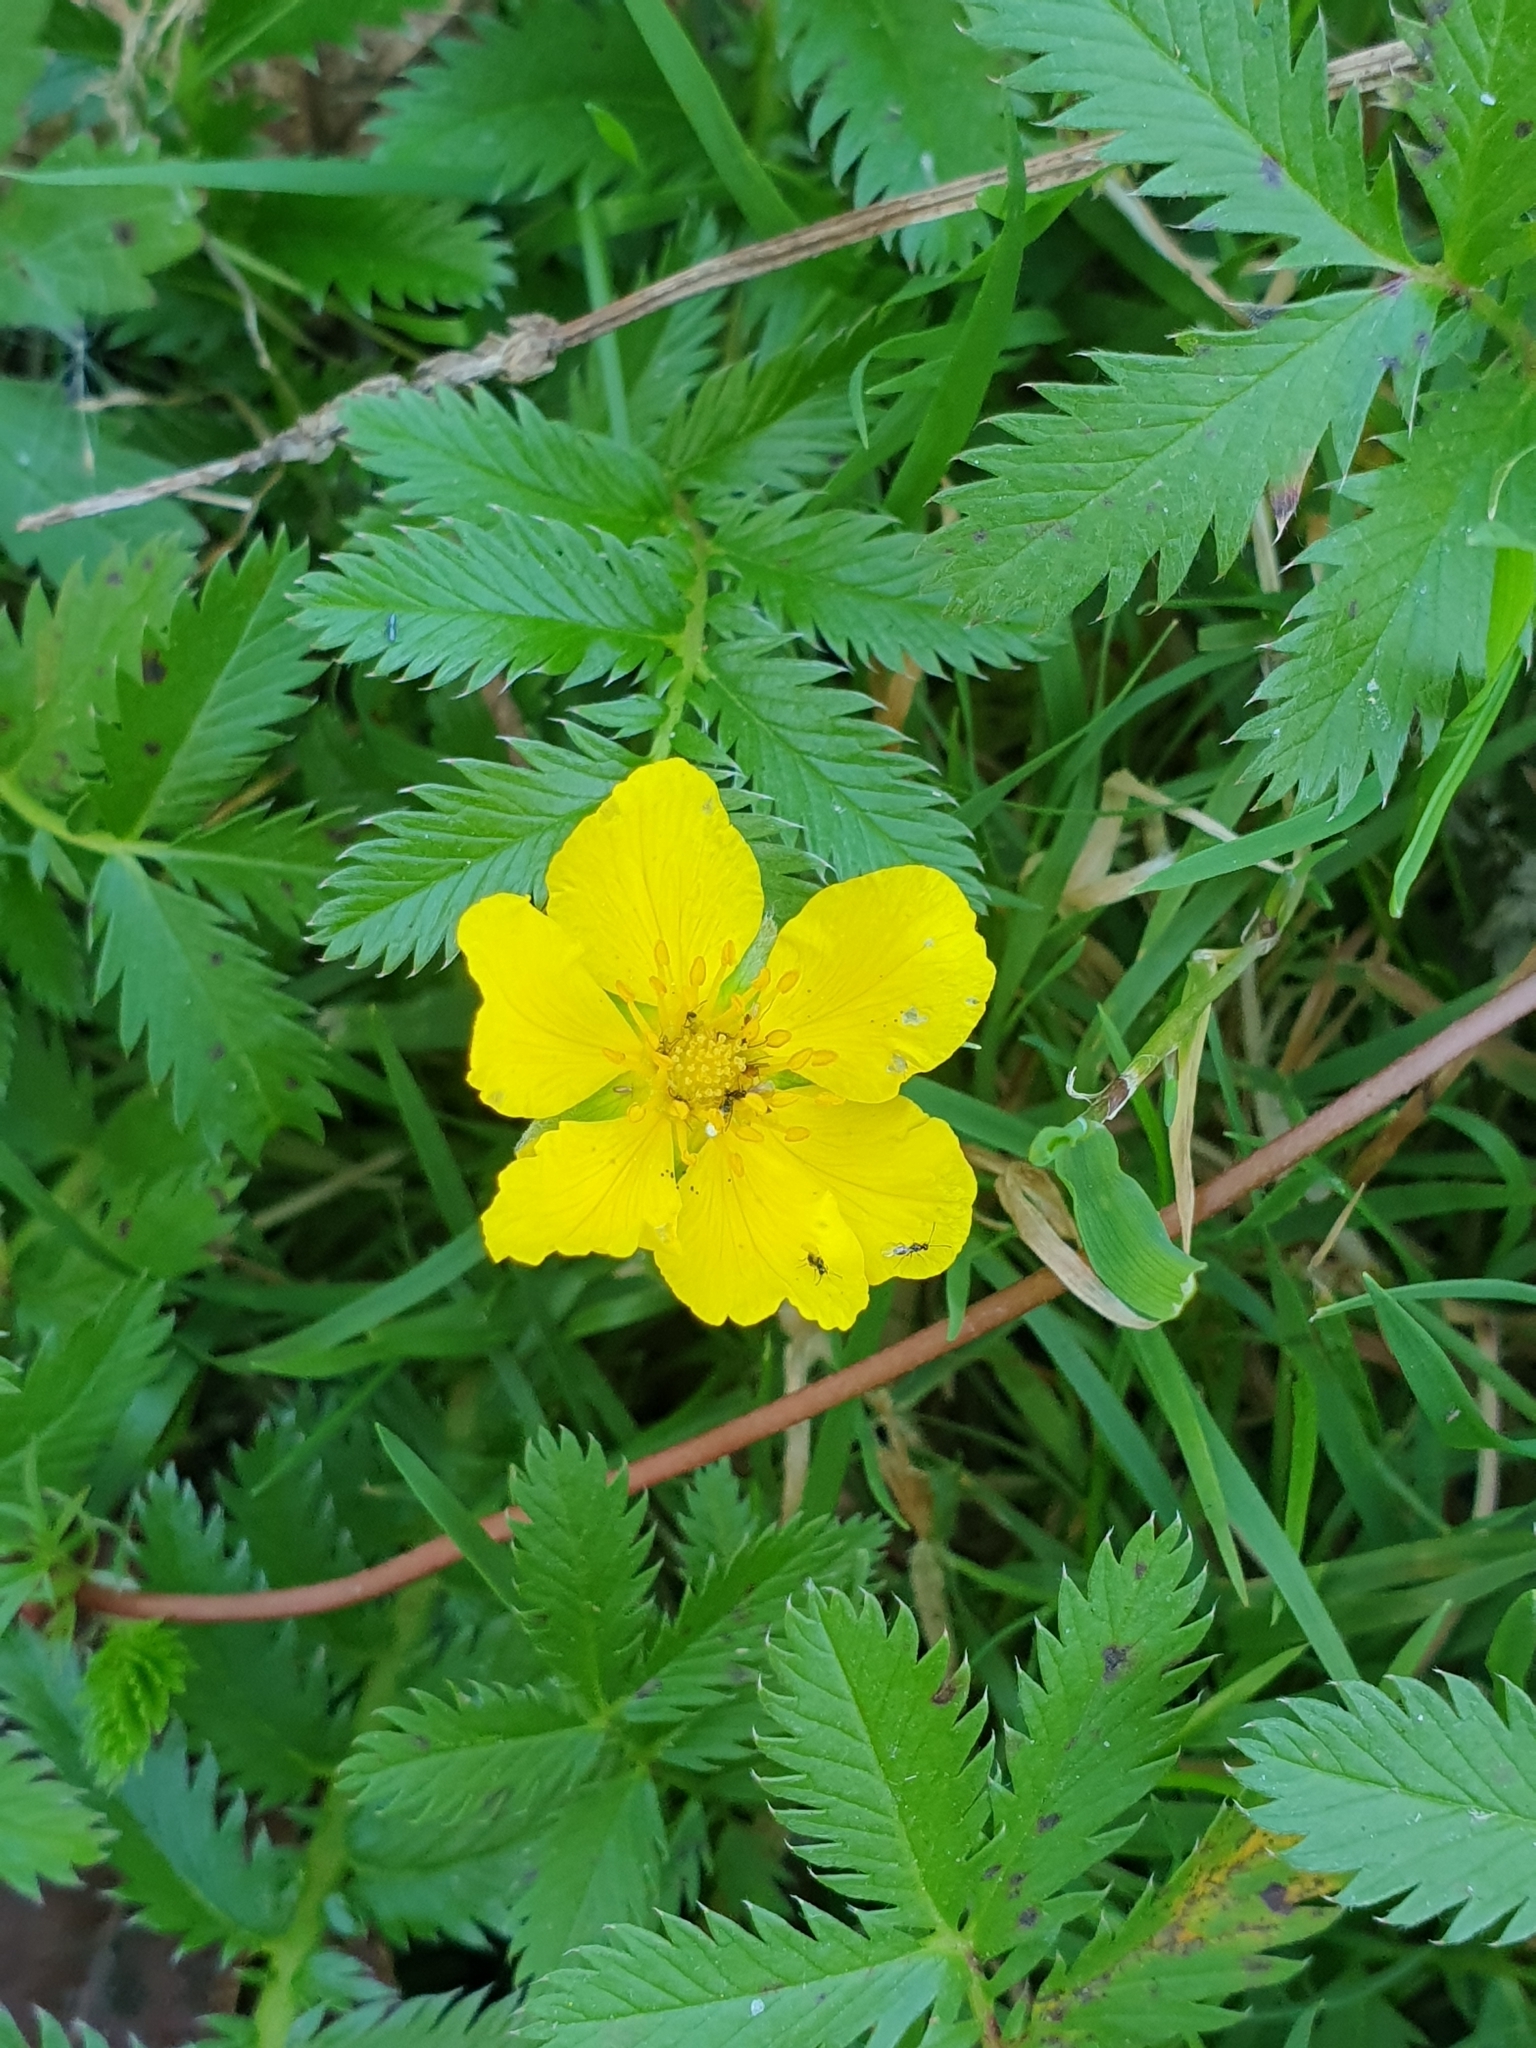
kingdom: Plantae
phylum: Tracheophyta
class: Magnoliopsida
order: Rosales
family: Rosaceae
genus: Argentina
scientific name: Argentina anserina
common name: Common silverweed
